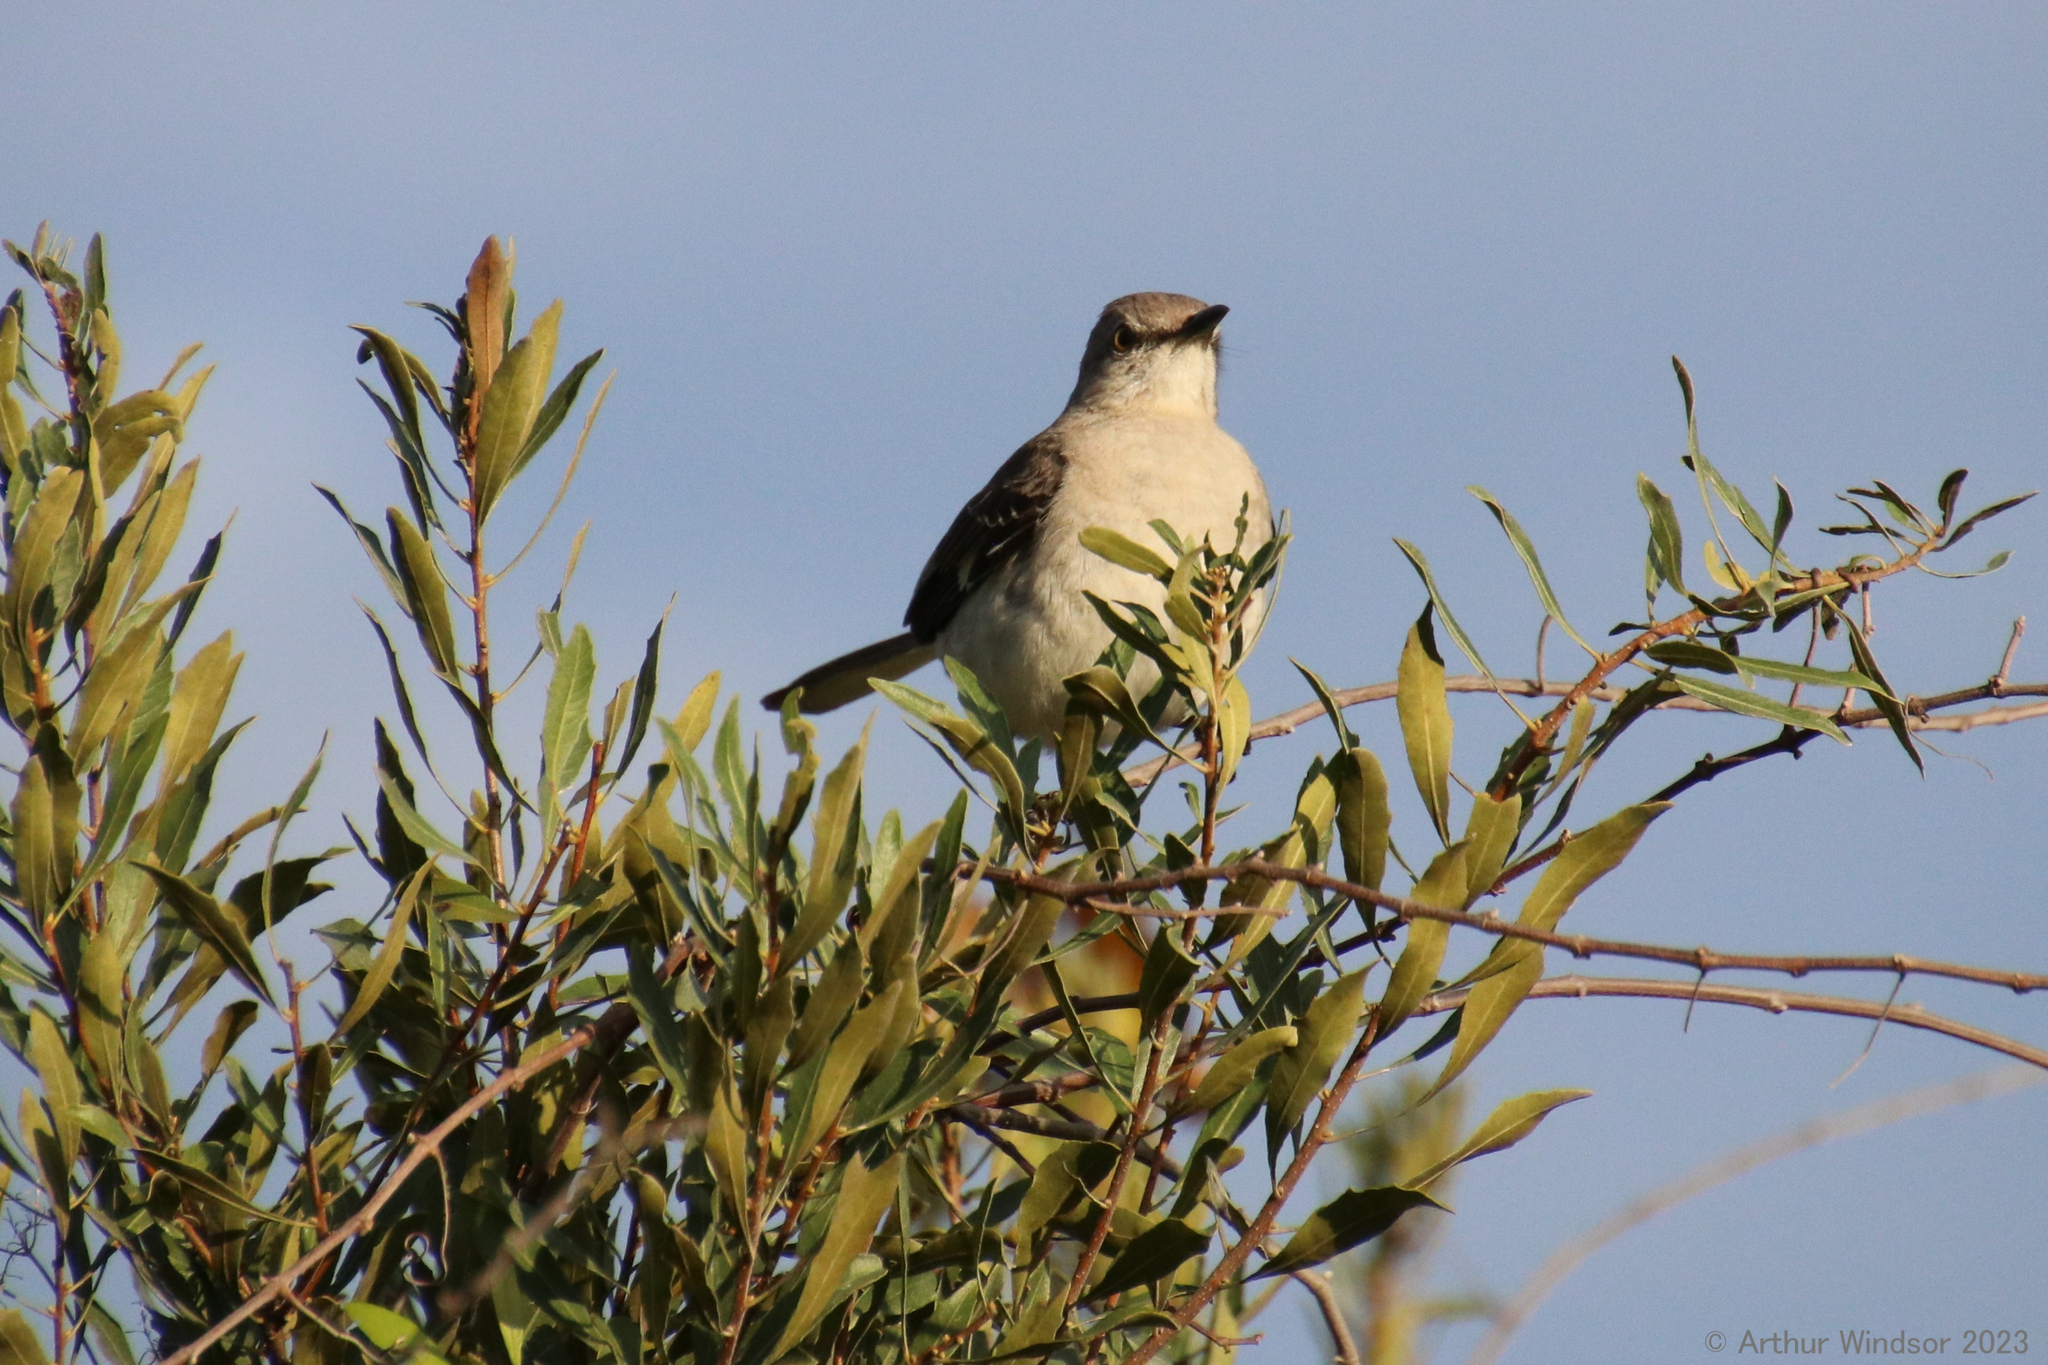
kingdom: Animalia
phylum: Chordata
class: Aves
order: Passeriformes
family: Mimidae
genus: Mimus
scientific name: Mimus polyglottos
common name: Northern mockingbird
